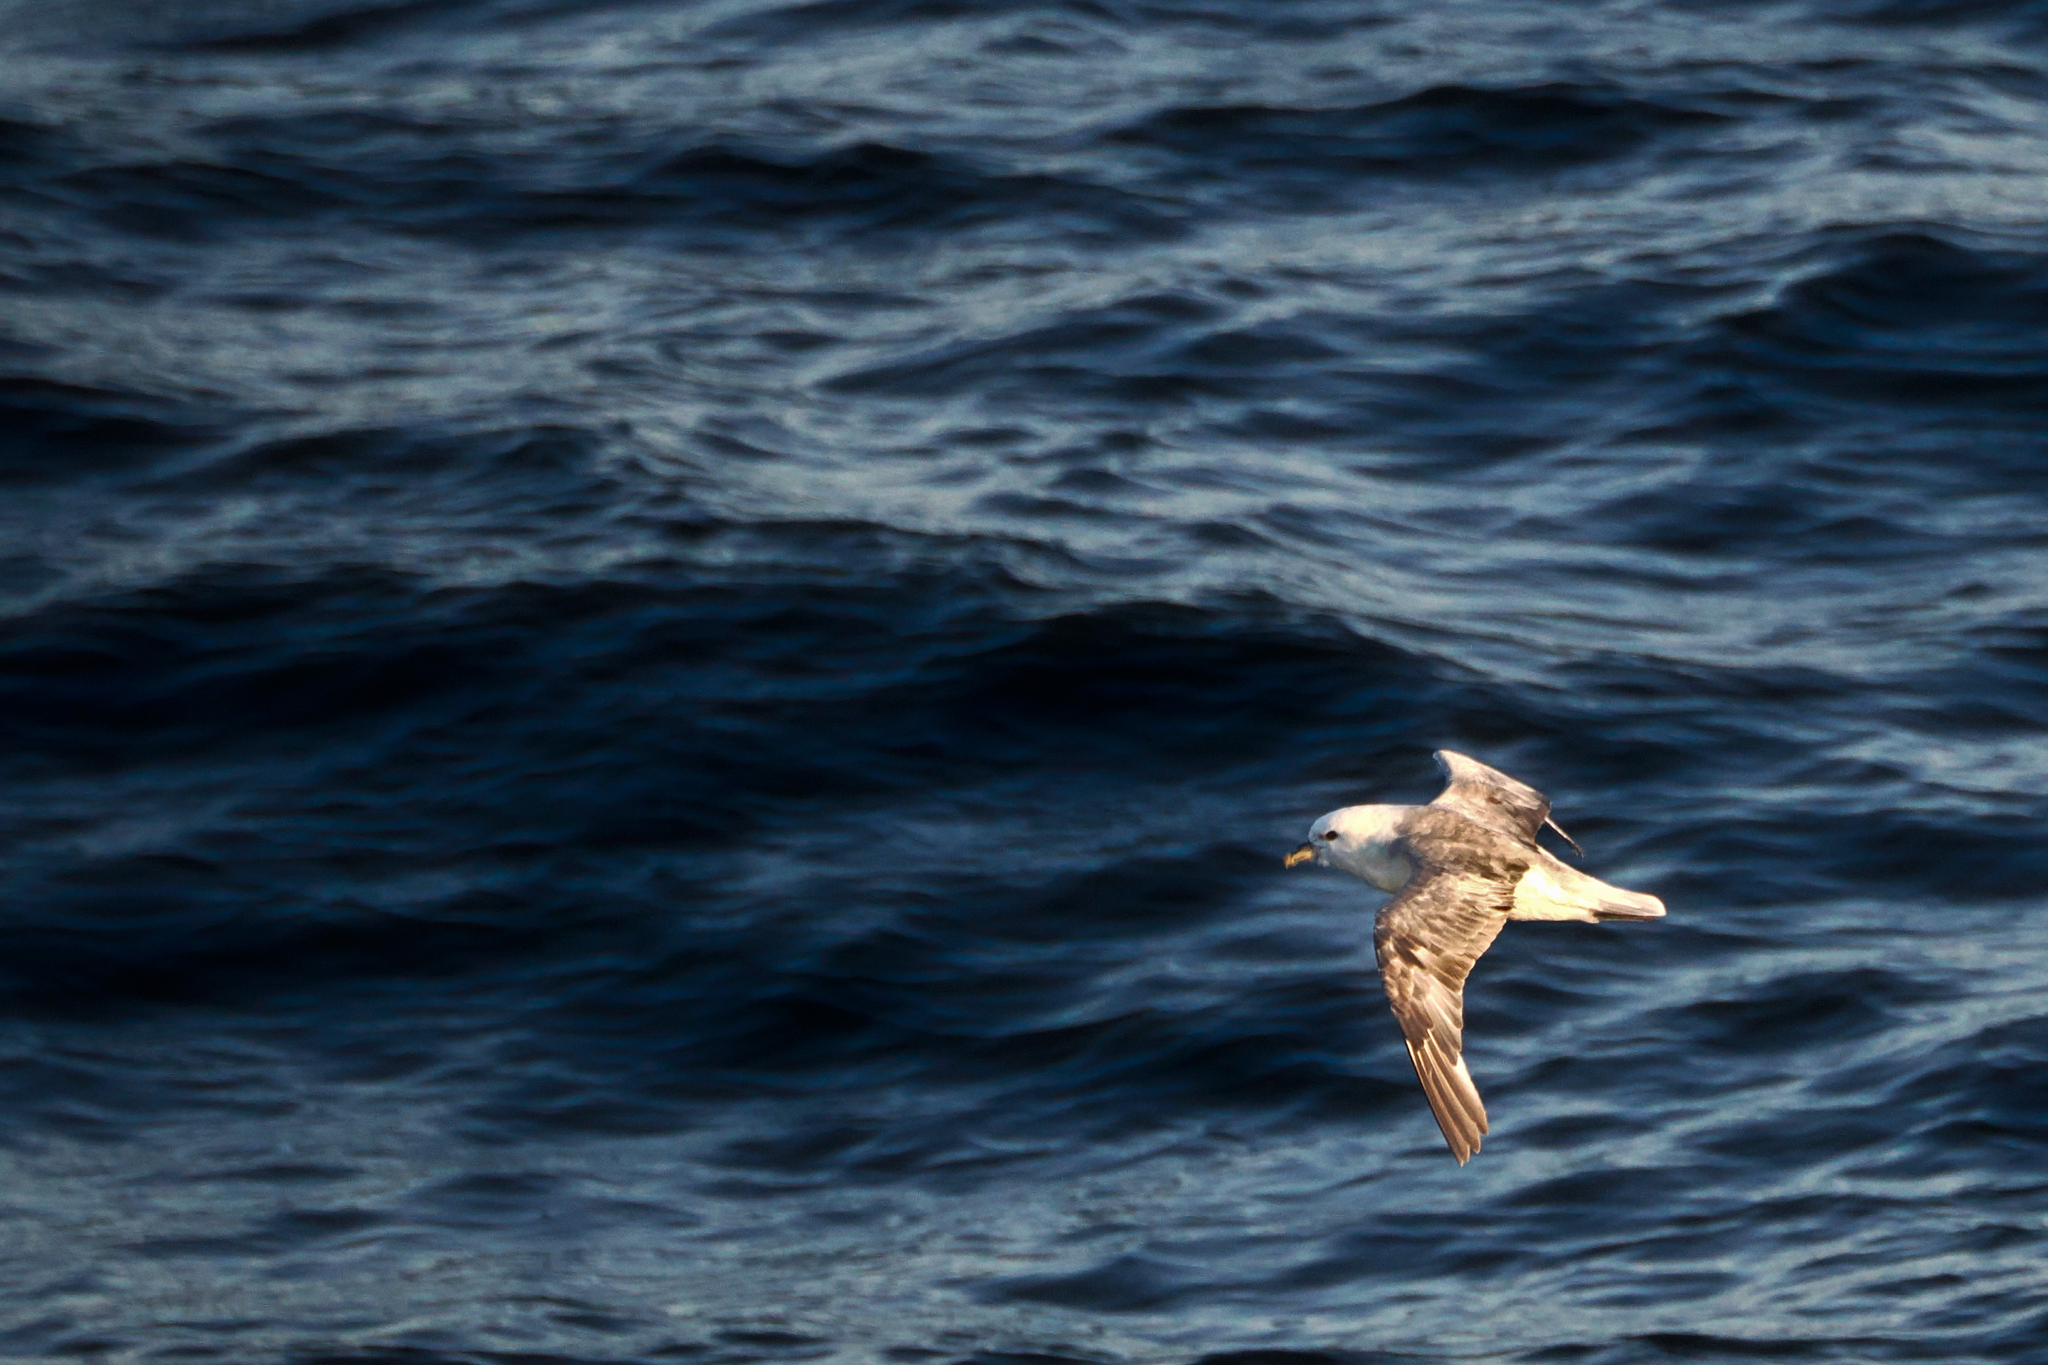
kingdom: Animalia
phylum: Chordata
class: Aves
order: Procellariiformes
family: Procellariidae
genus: Fulmarus
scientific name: Fulmarus glacialis
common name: Northern fulmar
